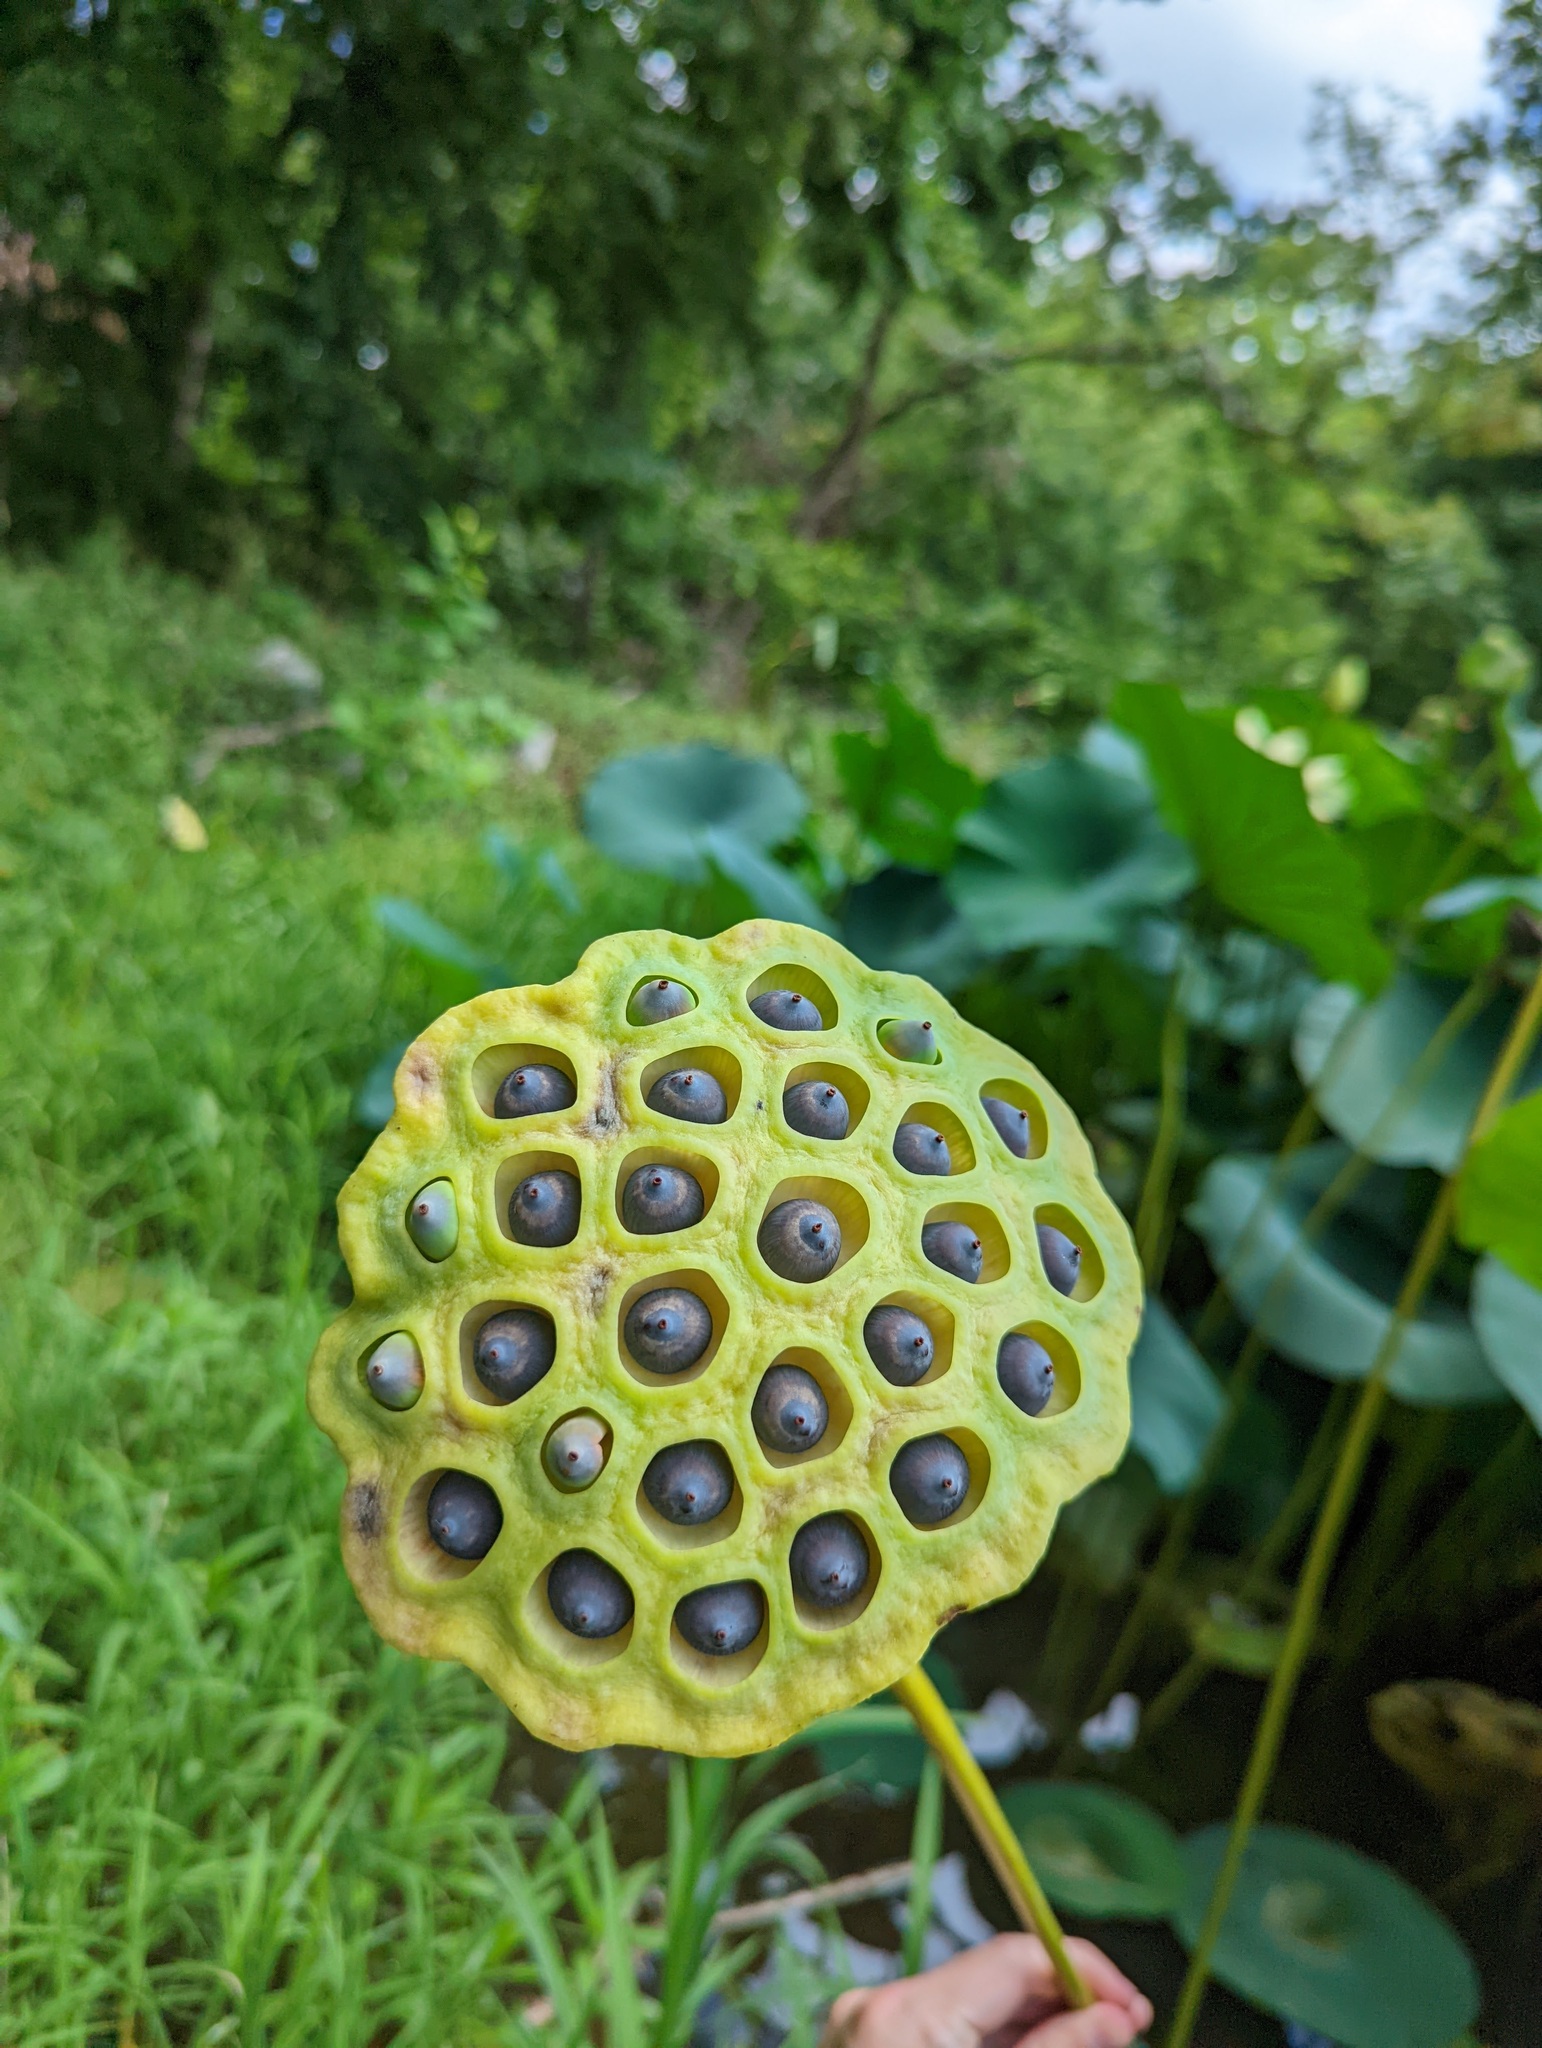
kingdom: Plantae
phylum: Tracheophyta
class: Magnoliopsida
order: Proteales
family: Nelumbonaceae
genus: Nelumbo
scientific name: Nelumbo lutea
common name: American lotus
